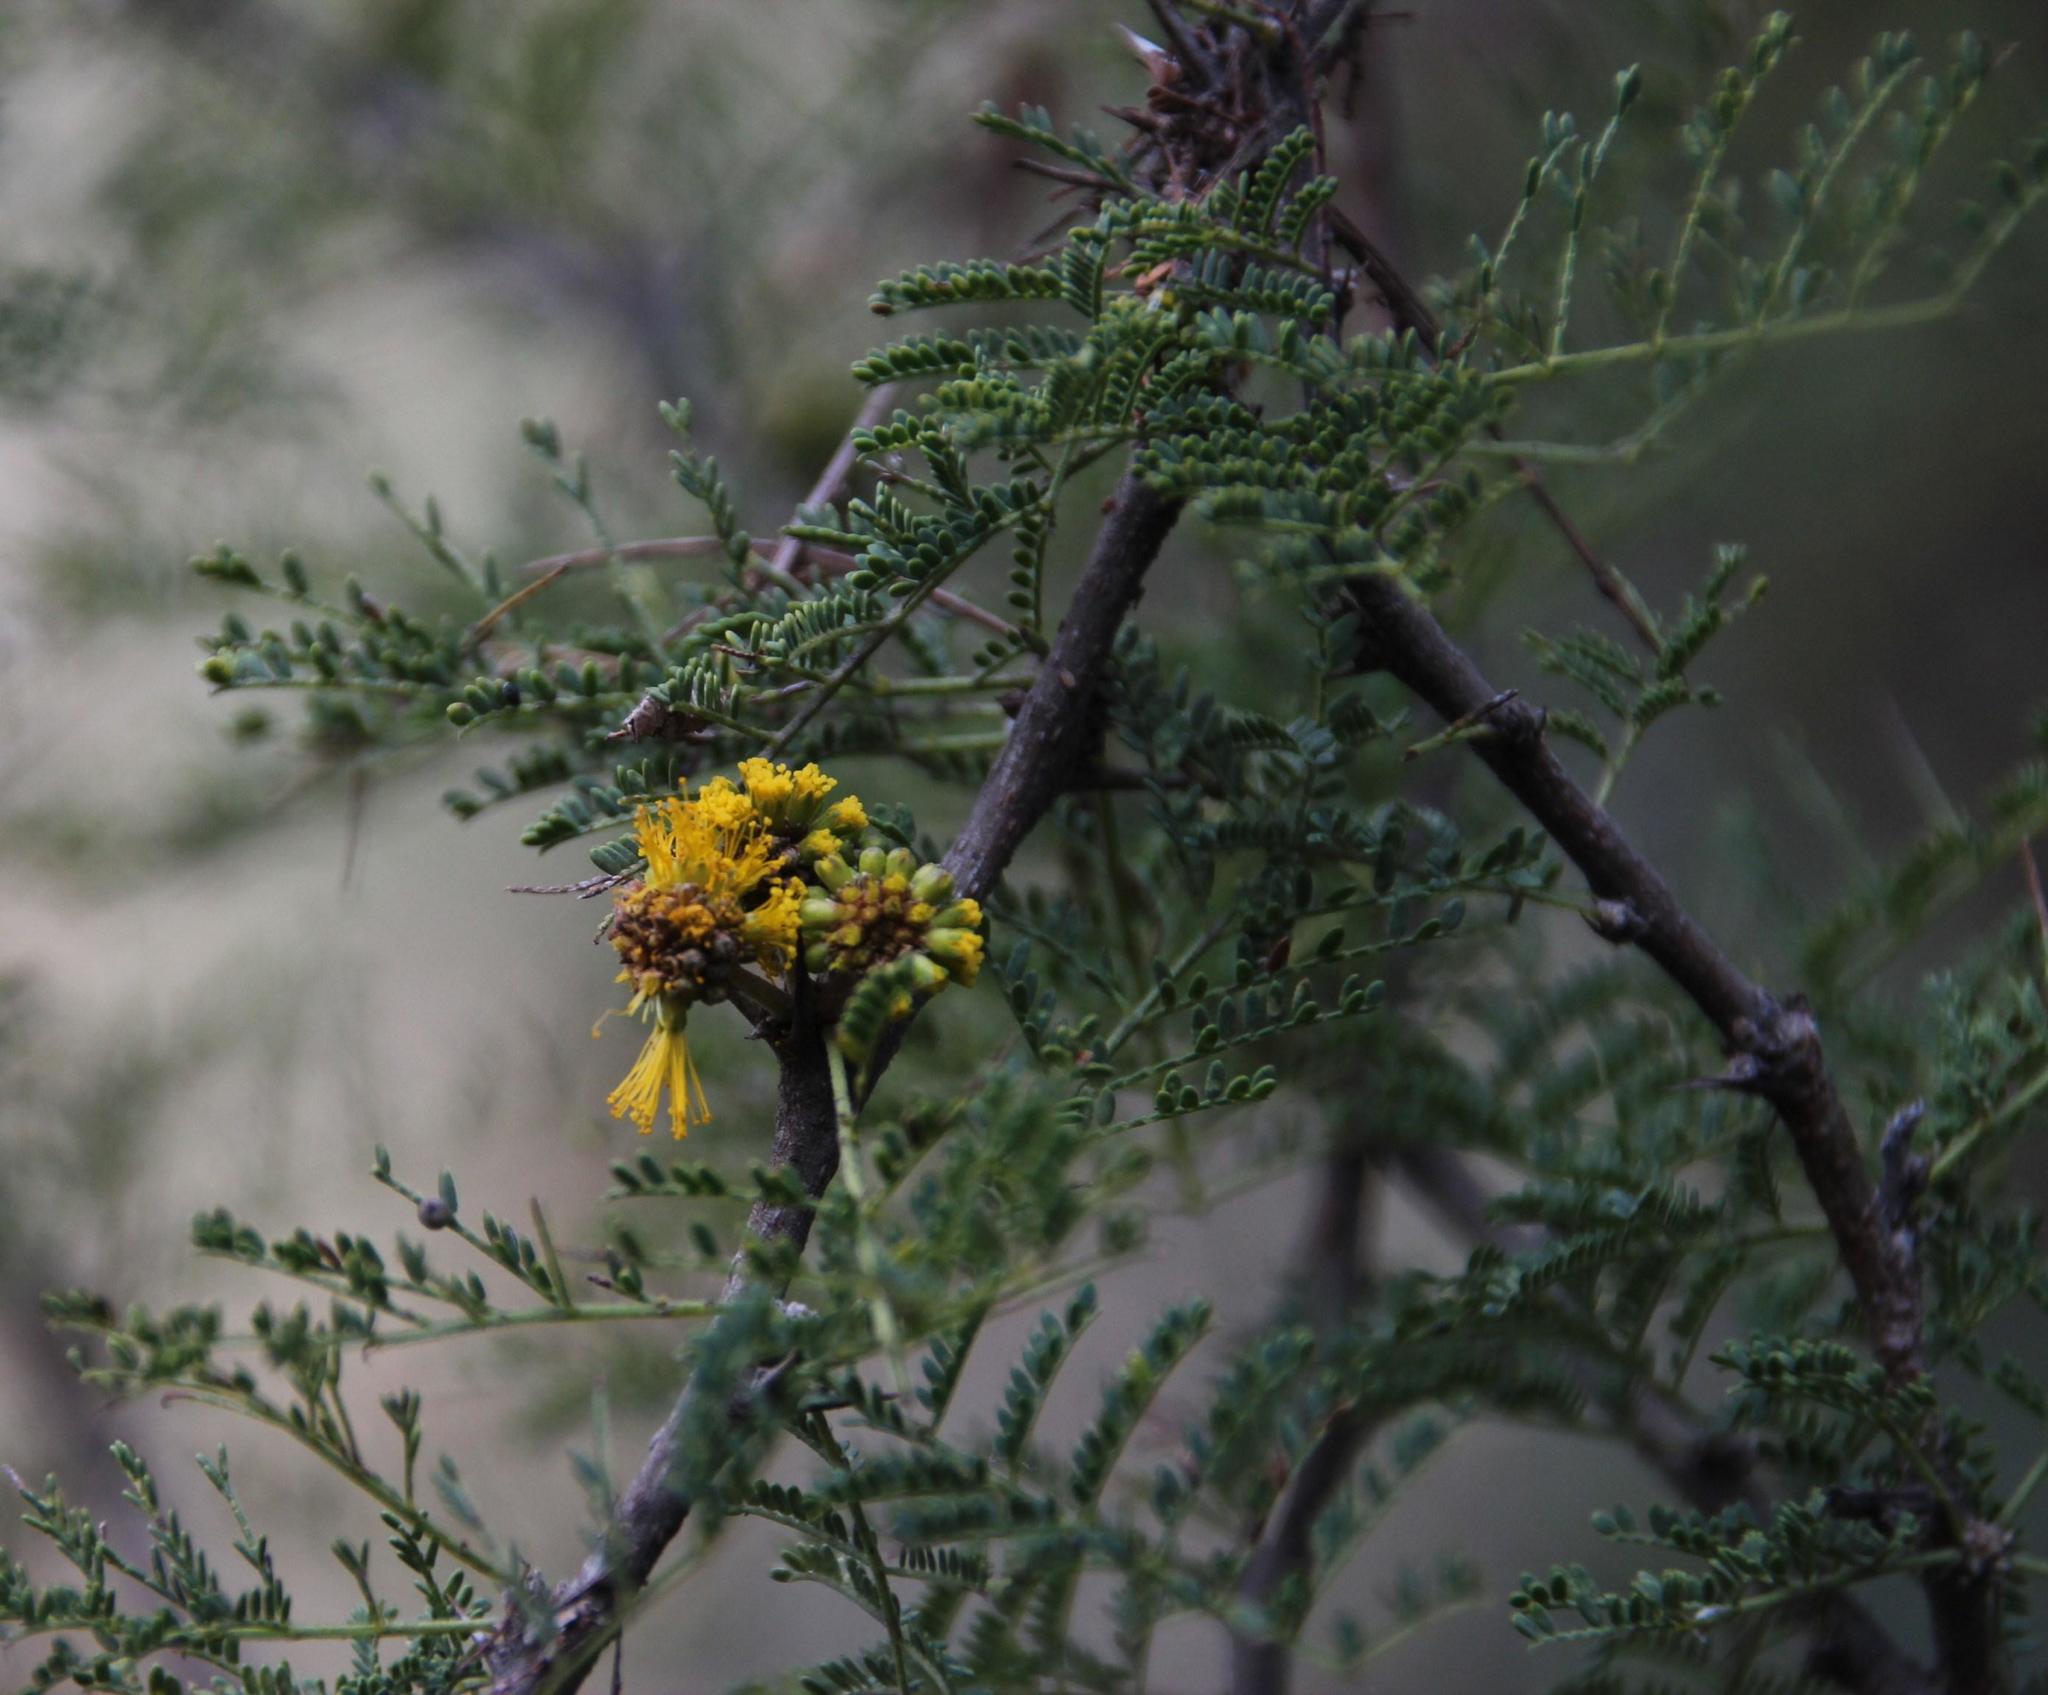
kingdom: Plantae
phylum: Tracheophyta
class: Magnoliopsida
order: Fabales
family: Fabaceae
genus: Vachellia
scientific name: Vachellia caven
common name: Roman cassie
